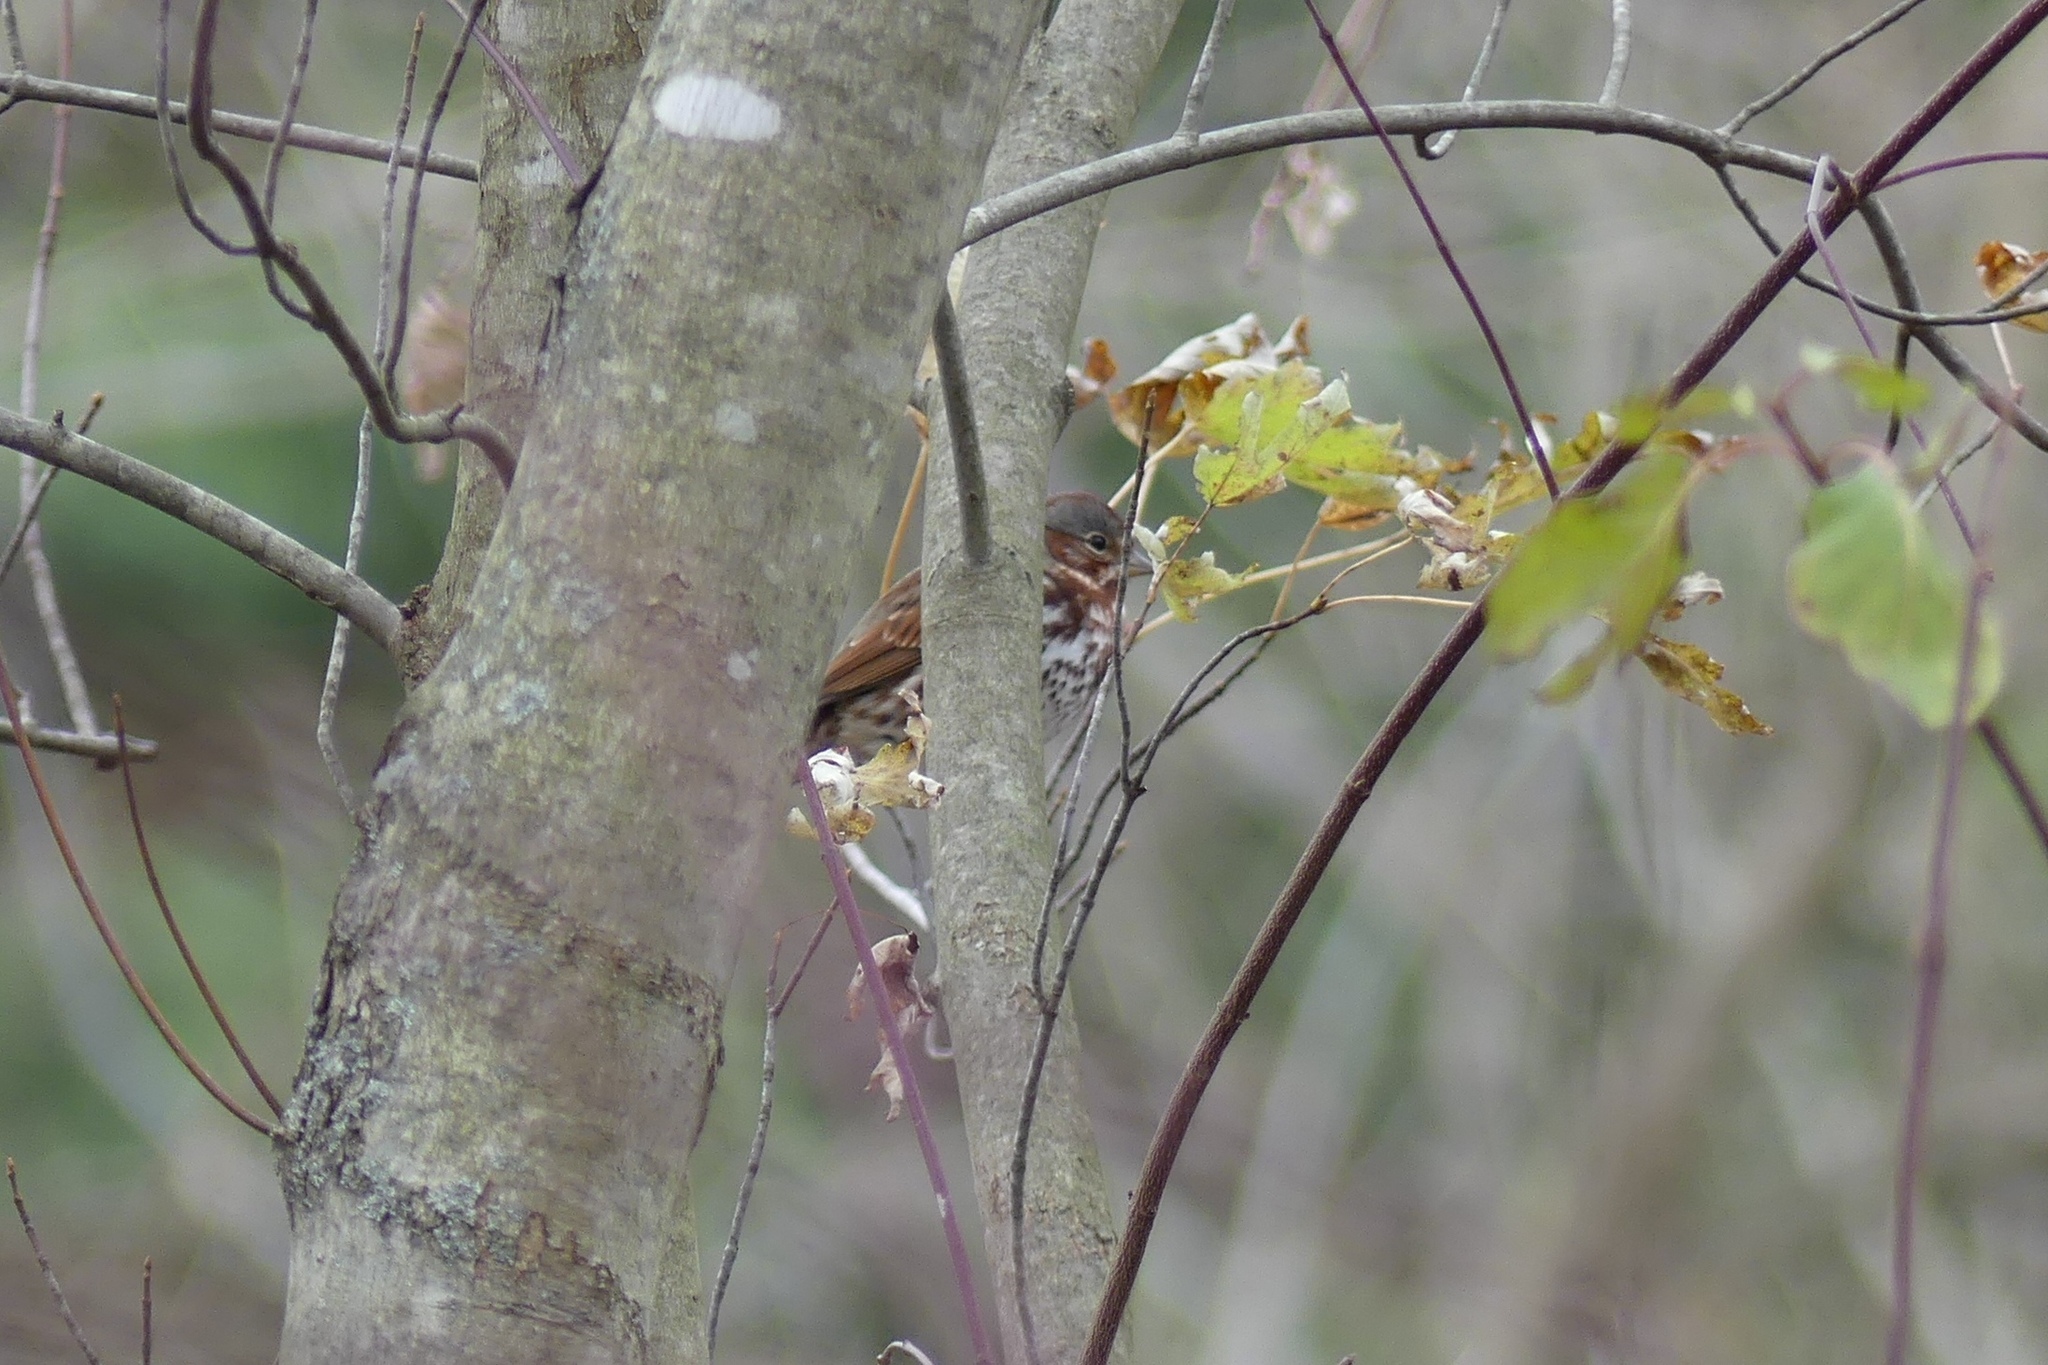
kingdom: Animalia
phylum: Chordata
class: Aves
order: Passeriformes
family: Passerellidae
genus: Passerella
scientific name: Passerella iliaca
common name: Fox sparrow
